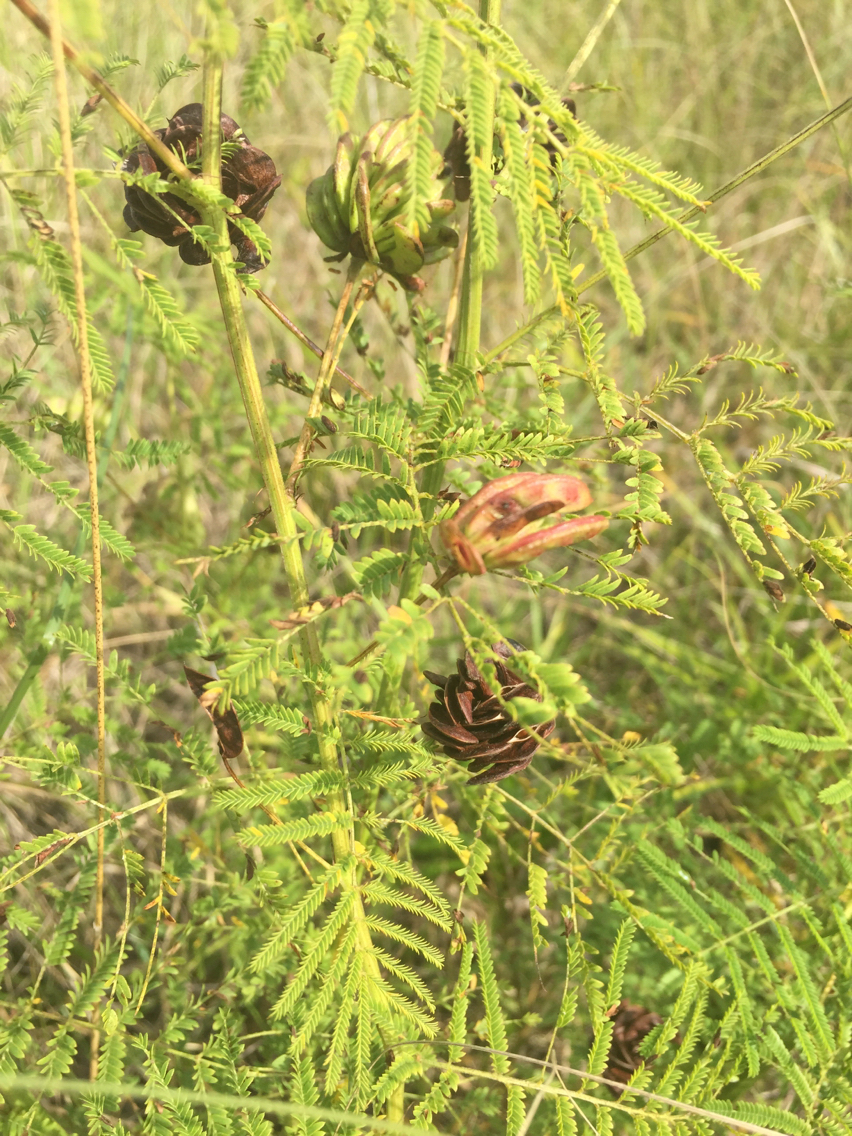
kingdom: Plantae
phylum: Tracheophyta
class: Magnoliopsida
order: Fabales
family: Fabaceae
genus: Desmanthus
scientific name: Desmanthus illinoensis
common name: Illinois bundle-flower
